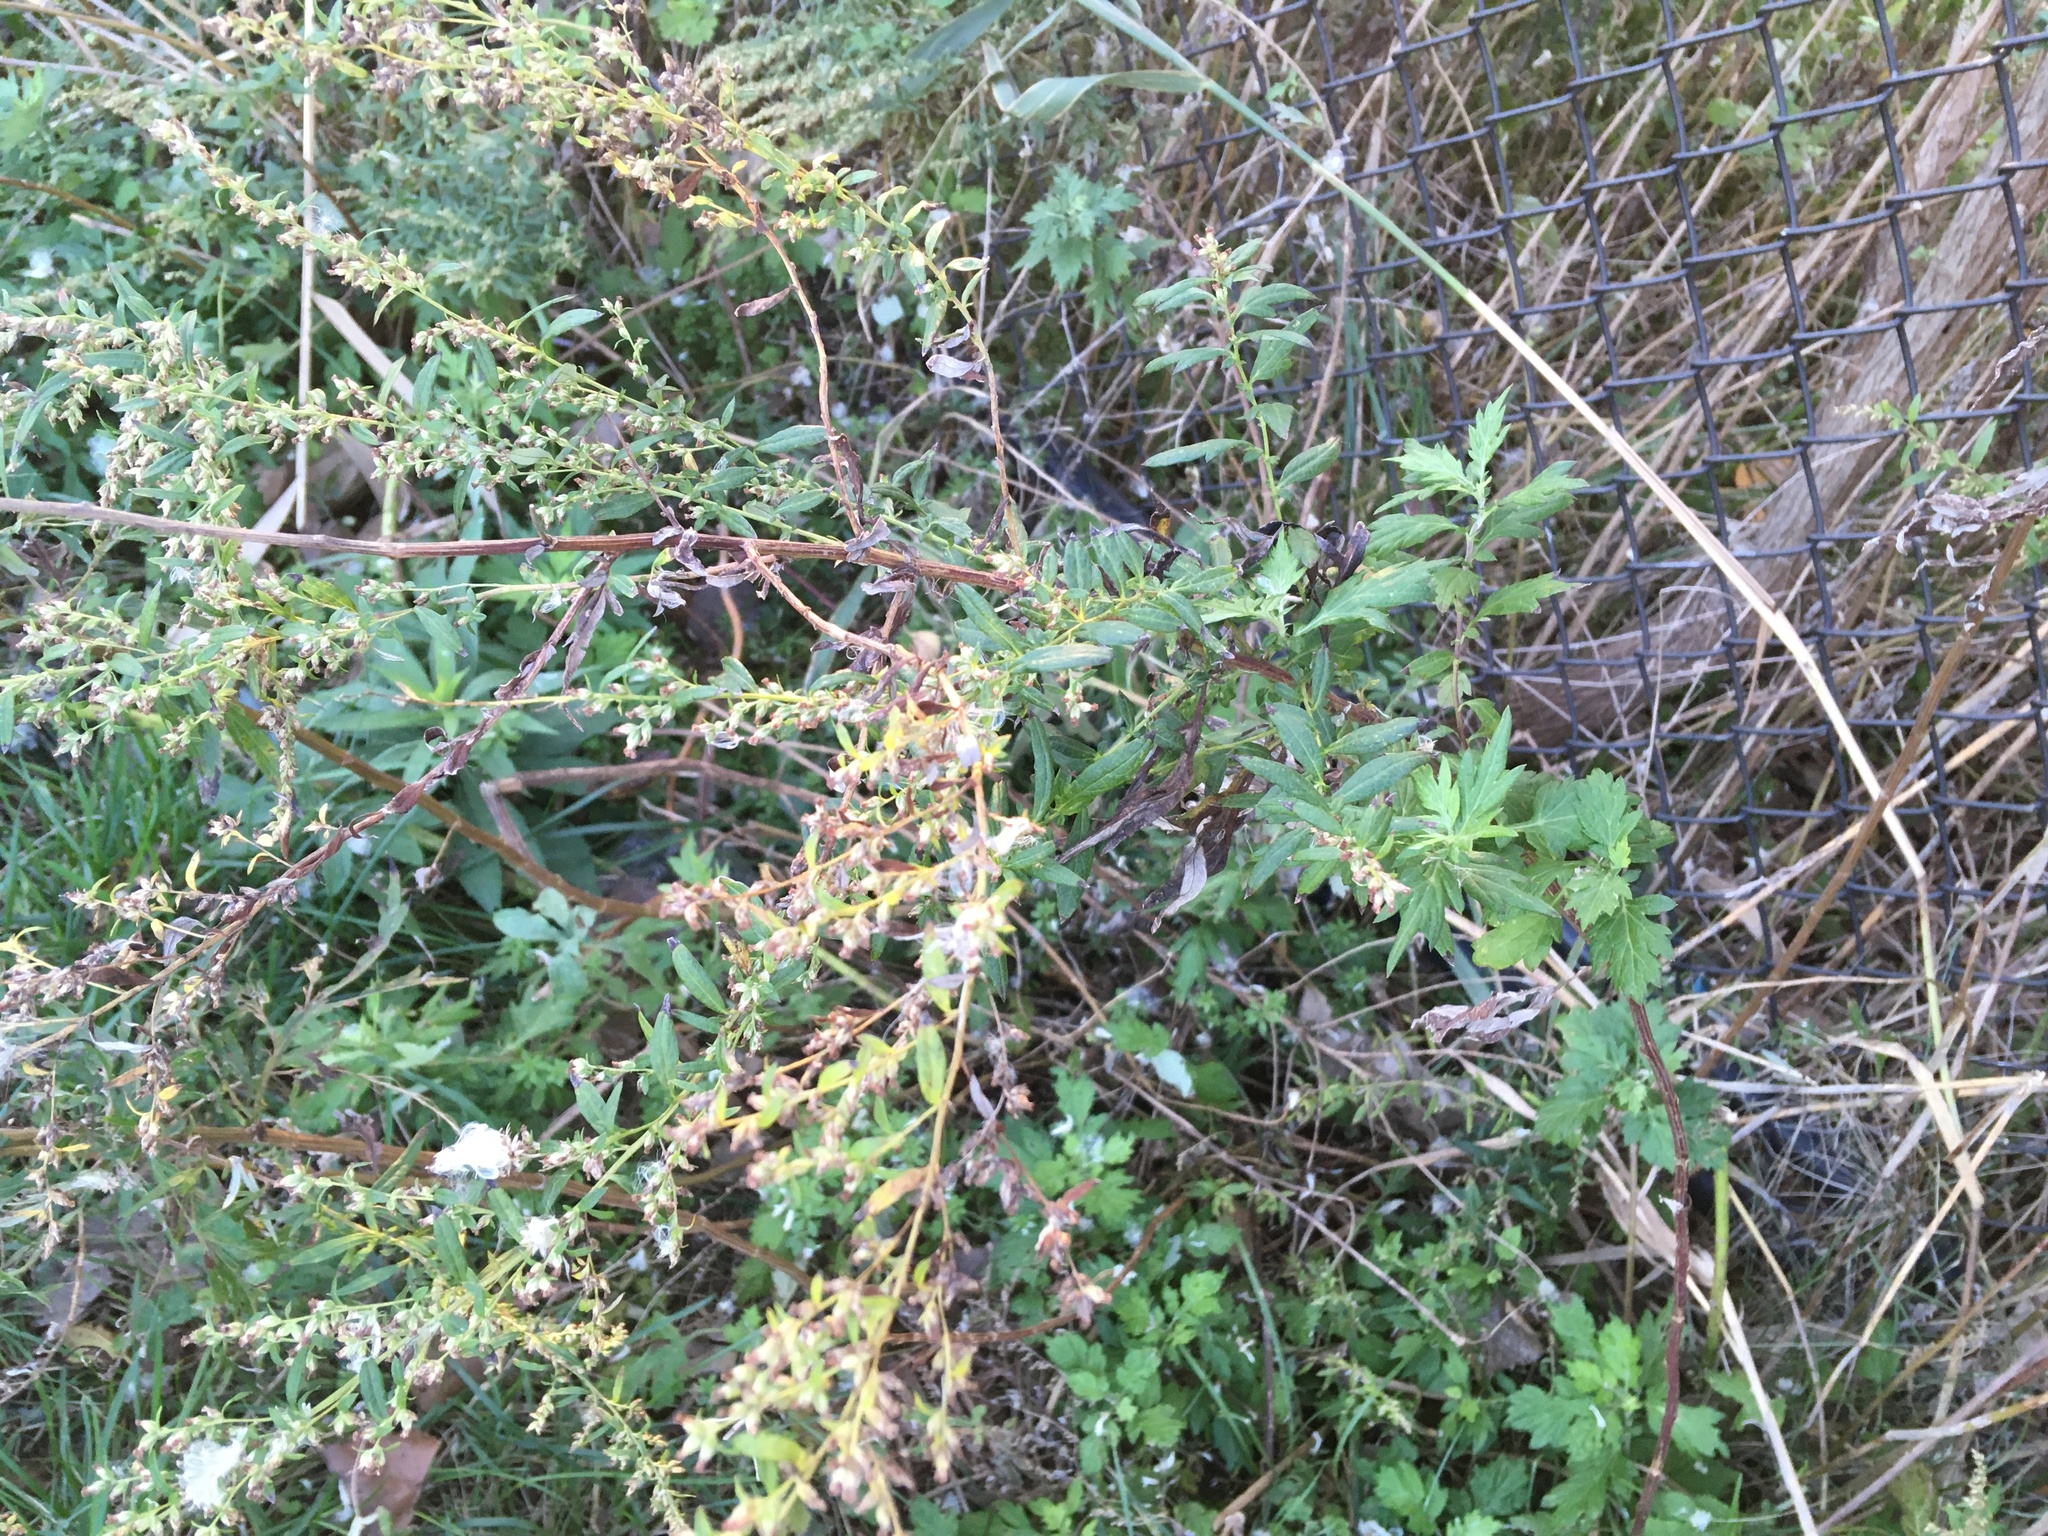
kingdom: Plantae
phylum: Tracheophyta
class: Magnoliopsida
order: Asterales
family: Asteraceae
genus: Artemisia
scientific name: Artemisia vulgaris
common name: Mugwort
